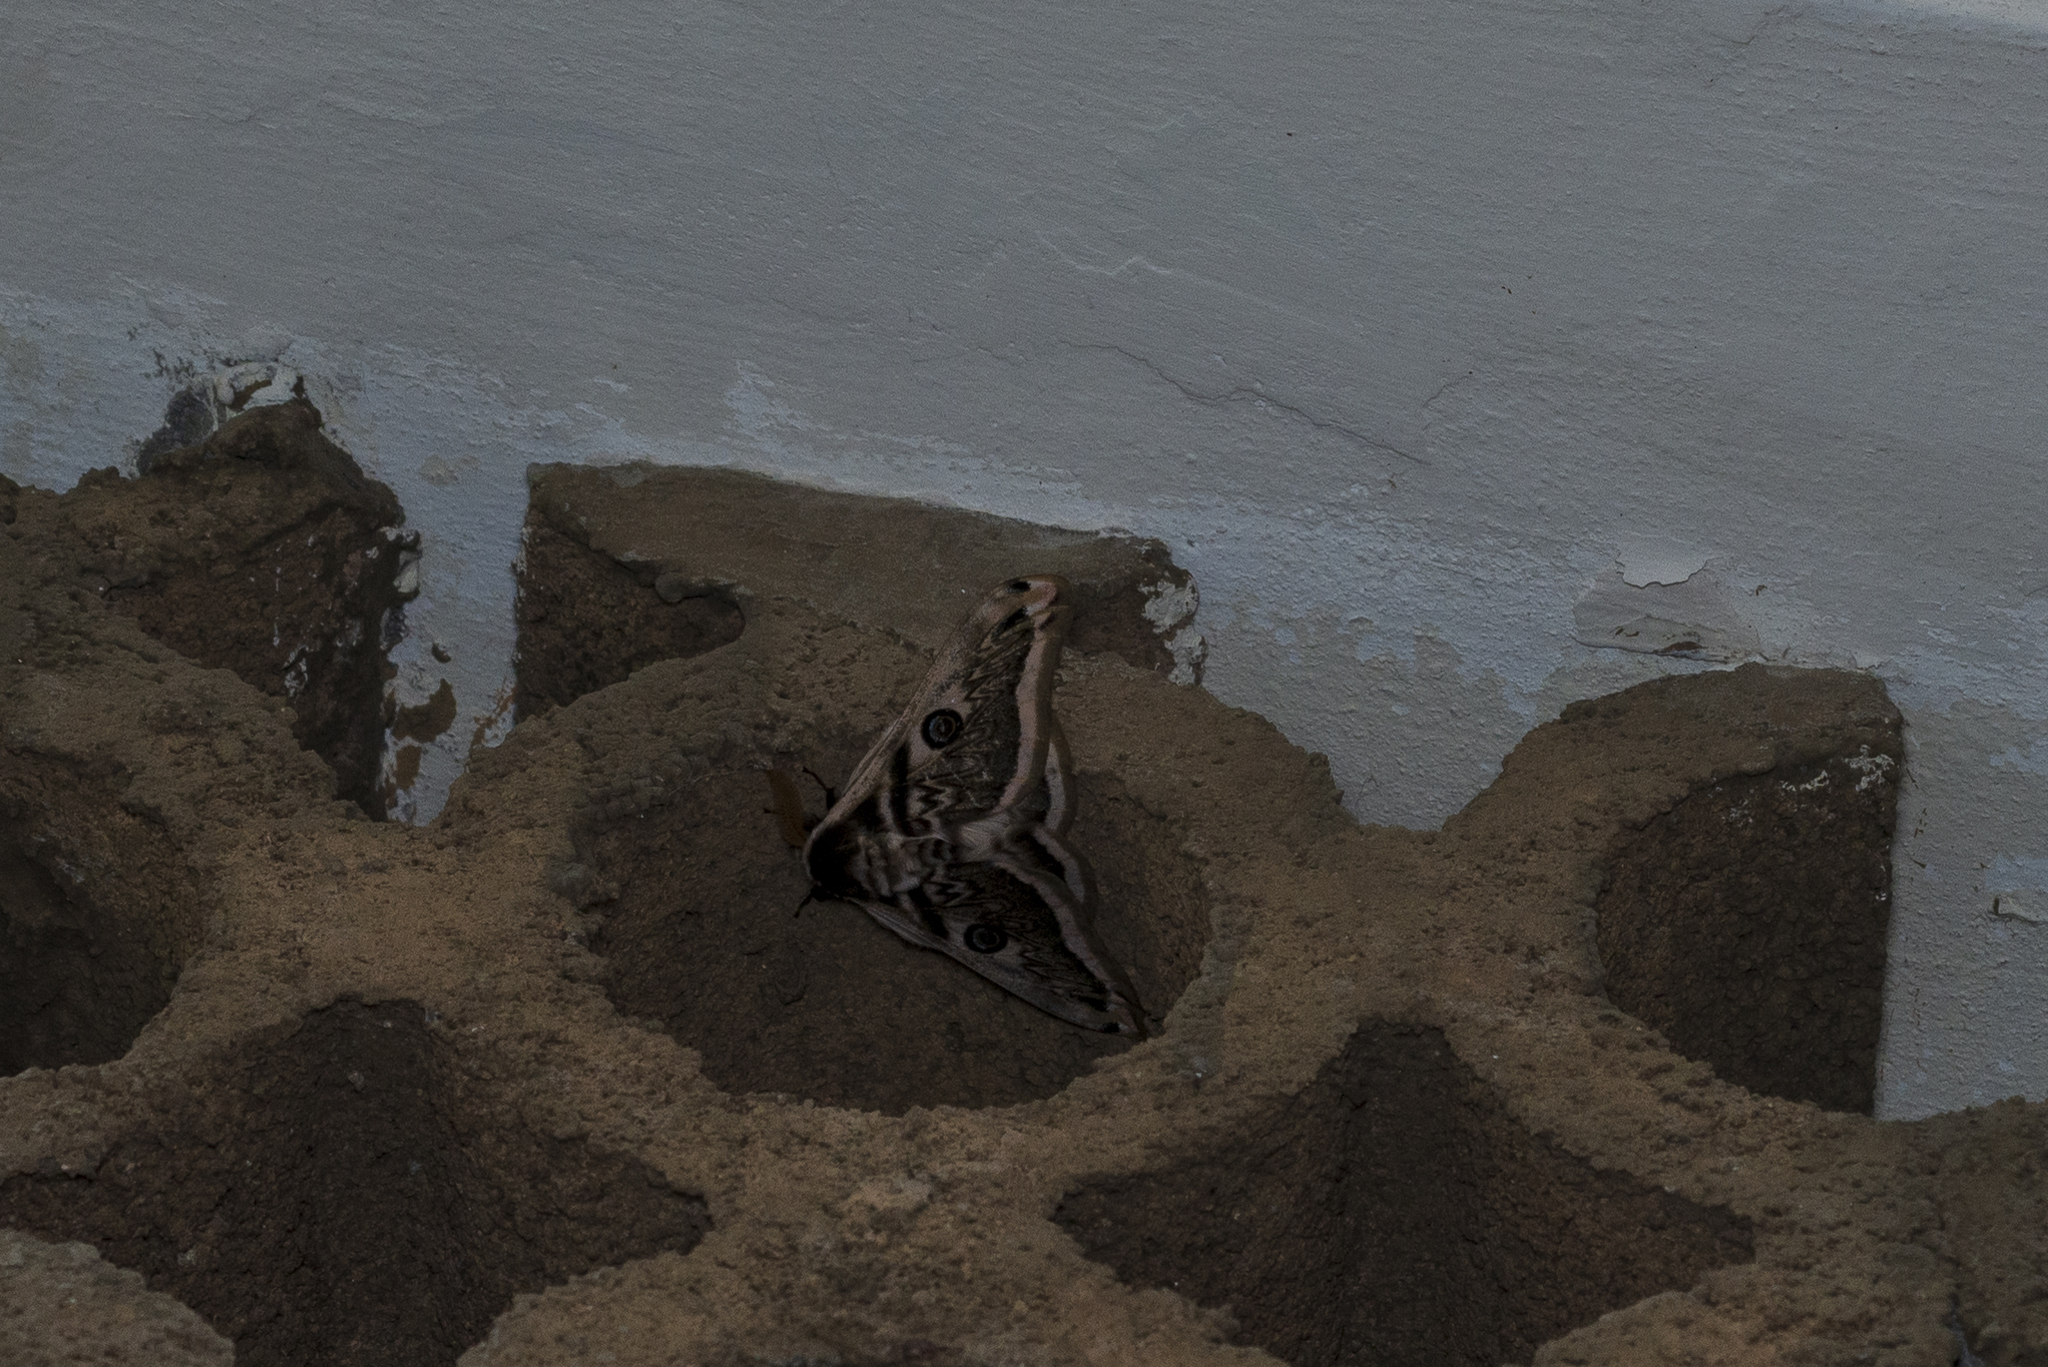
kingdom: Animalia
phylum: Arthropoda
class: Insecta
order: Lepidoptera
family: Saturniidae
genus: Saturnia
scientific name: Saturnia pyretorum
